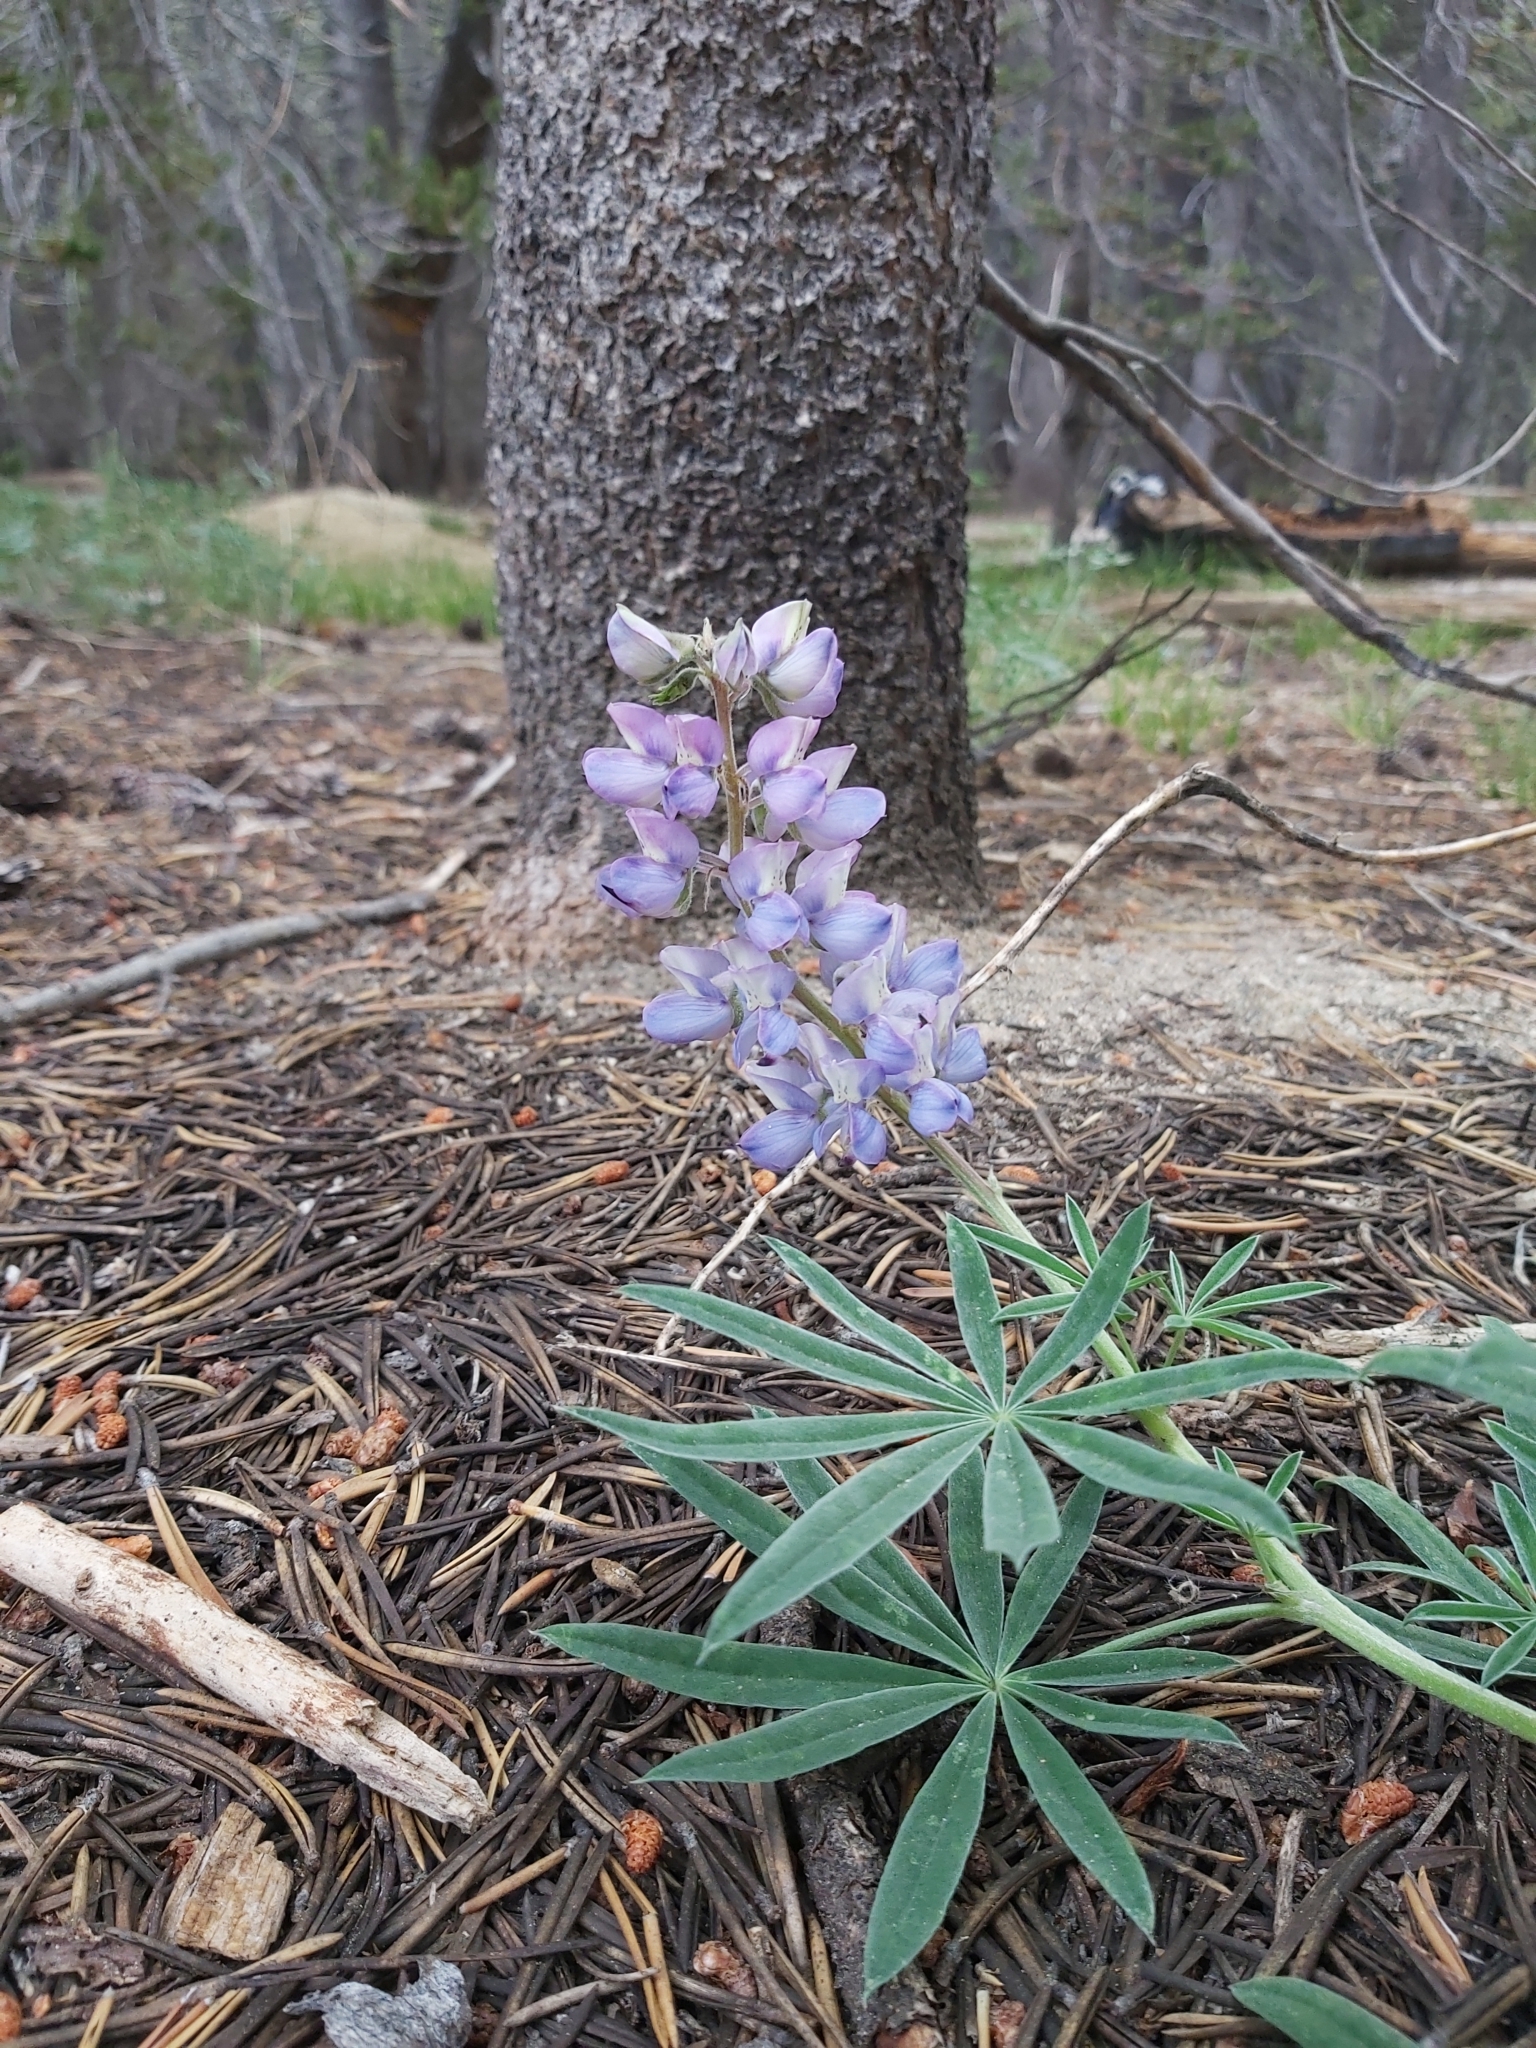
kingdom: Plantae
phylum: Tracheophyta
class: Magnoliopsida
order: Fabales
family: Fabaceae
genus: Lupinus
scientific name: Lupinus hyacinthinus
